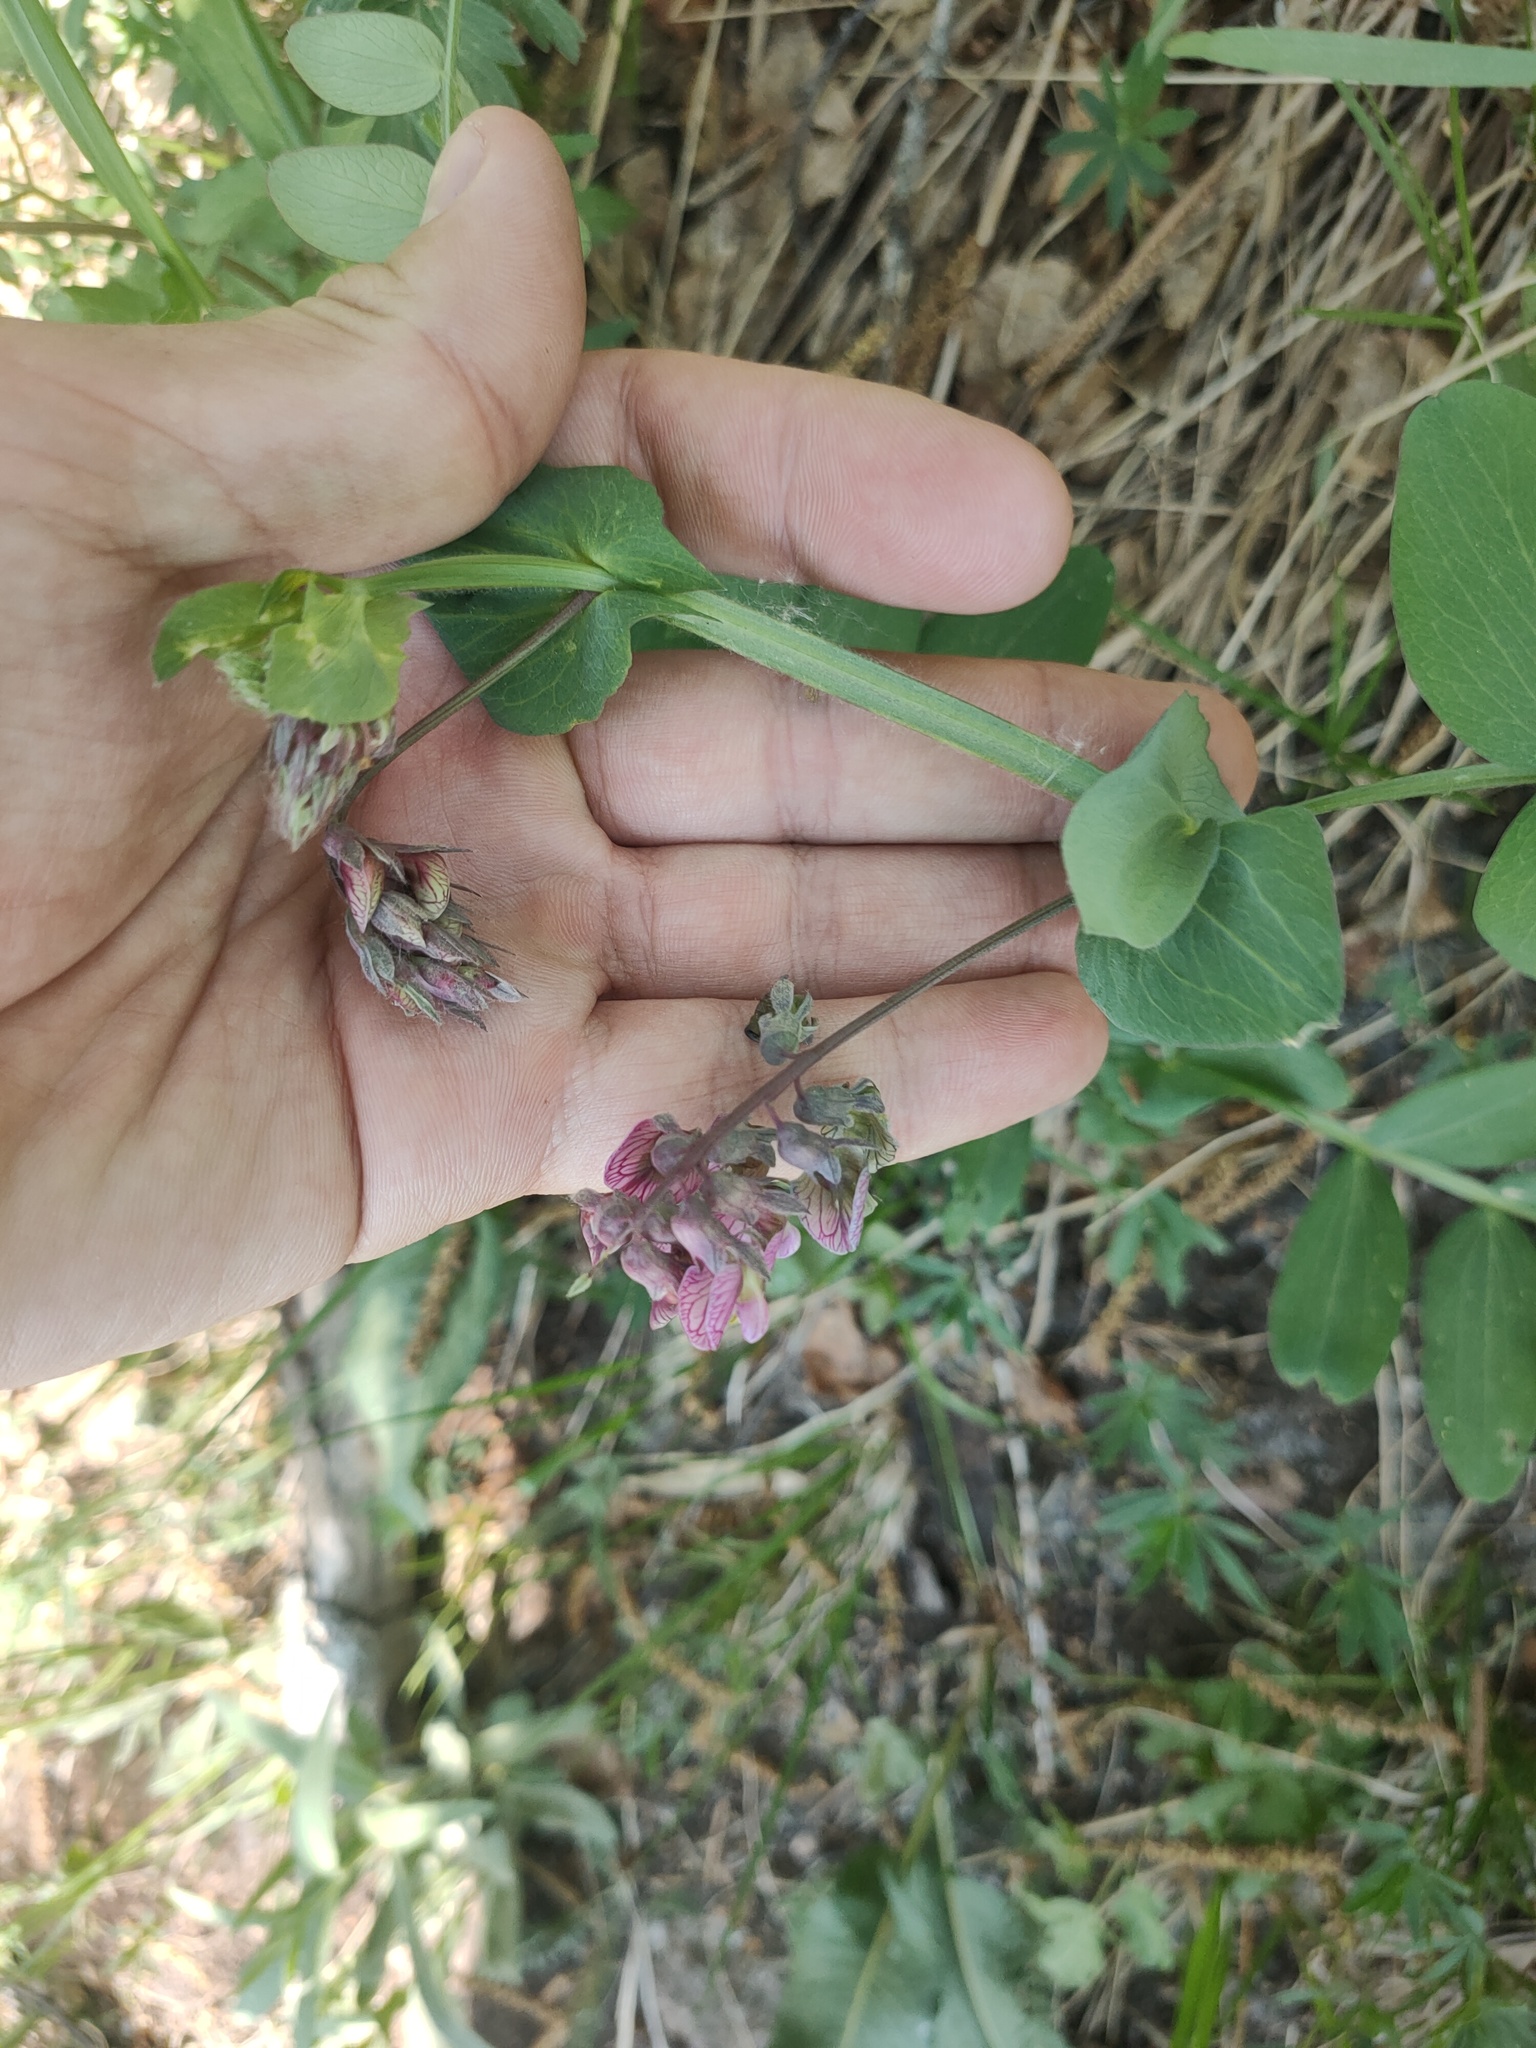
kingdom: Plantae
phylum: Tracheophyta
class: Magnoliopsida
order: Fabales
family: Fabaceae
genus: Lathyrus
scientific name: Lathyrus pisiformis
